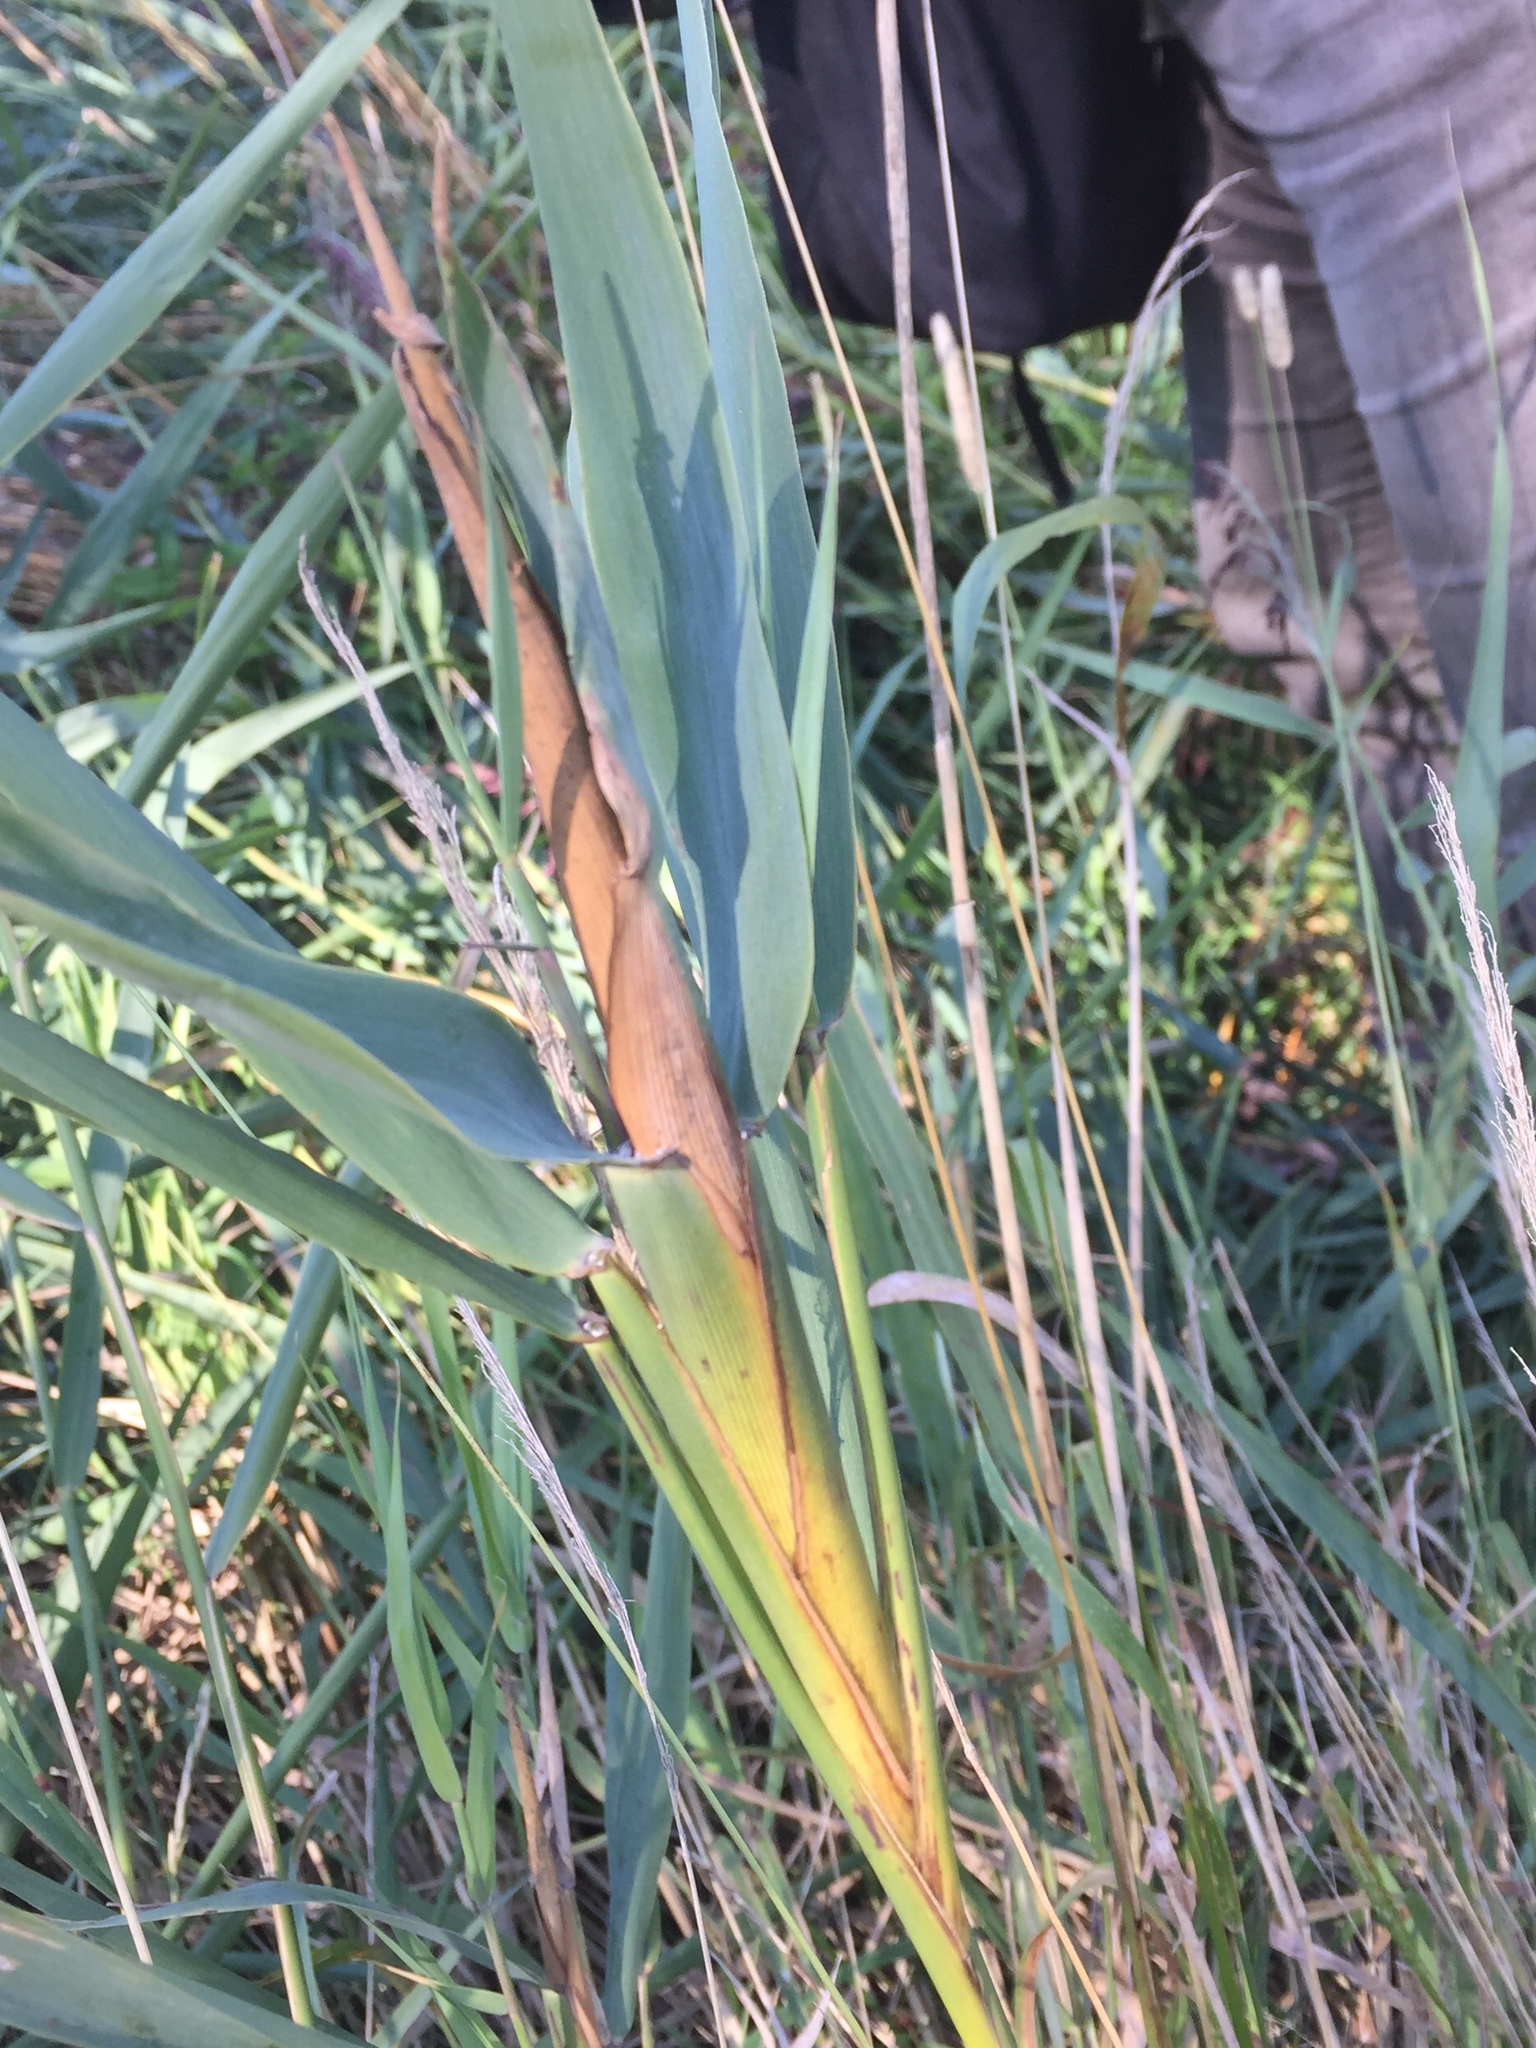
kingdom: Animalia
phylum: Arthropoda
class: Insecta
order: Diptera
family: Chloropidae
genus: Lipara
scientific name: Lipara lucens
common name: Frit fly
